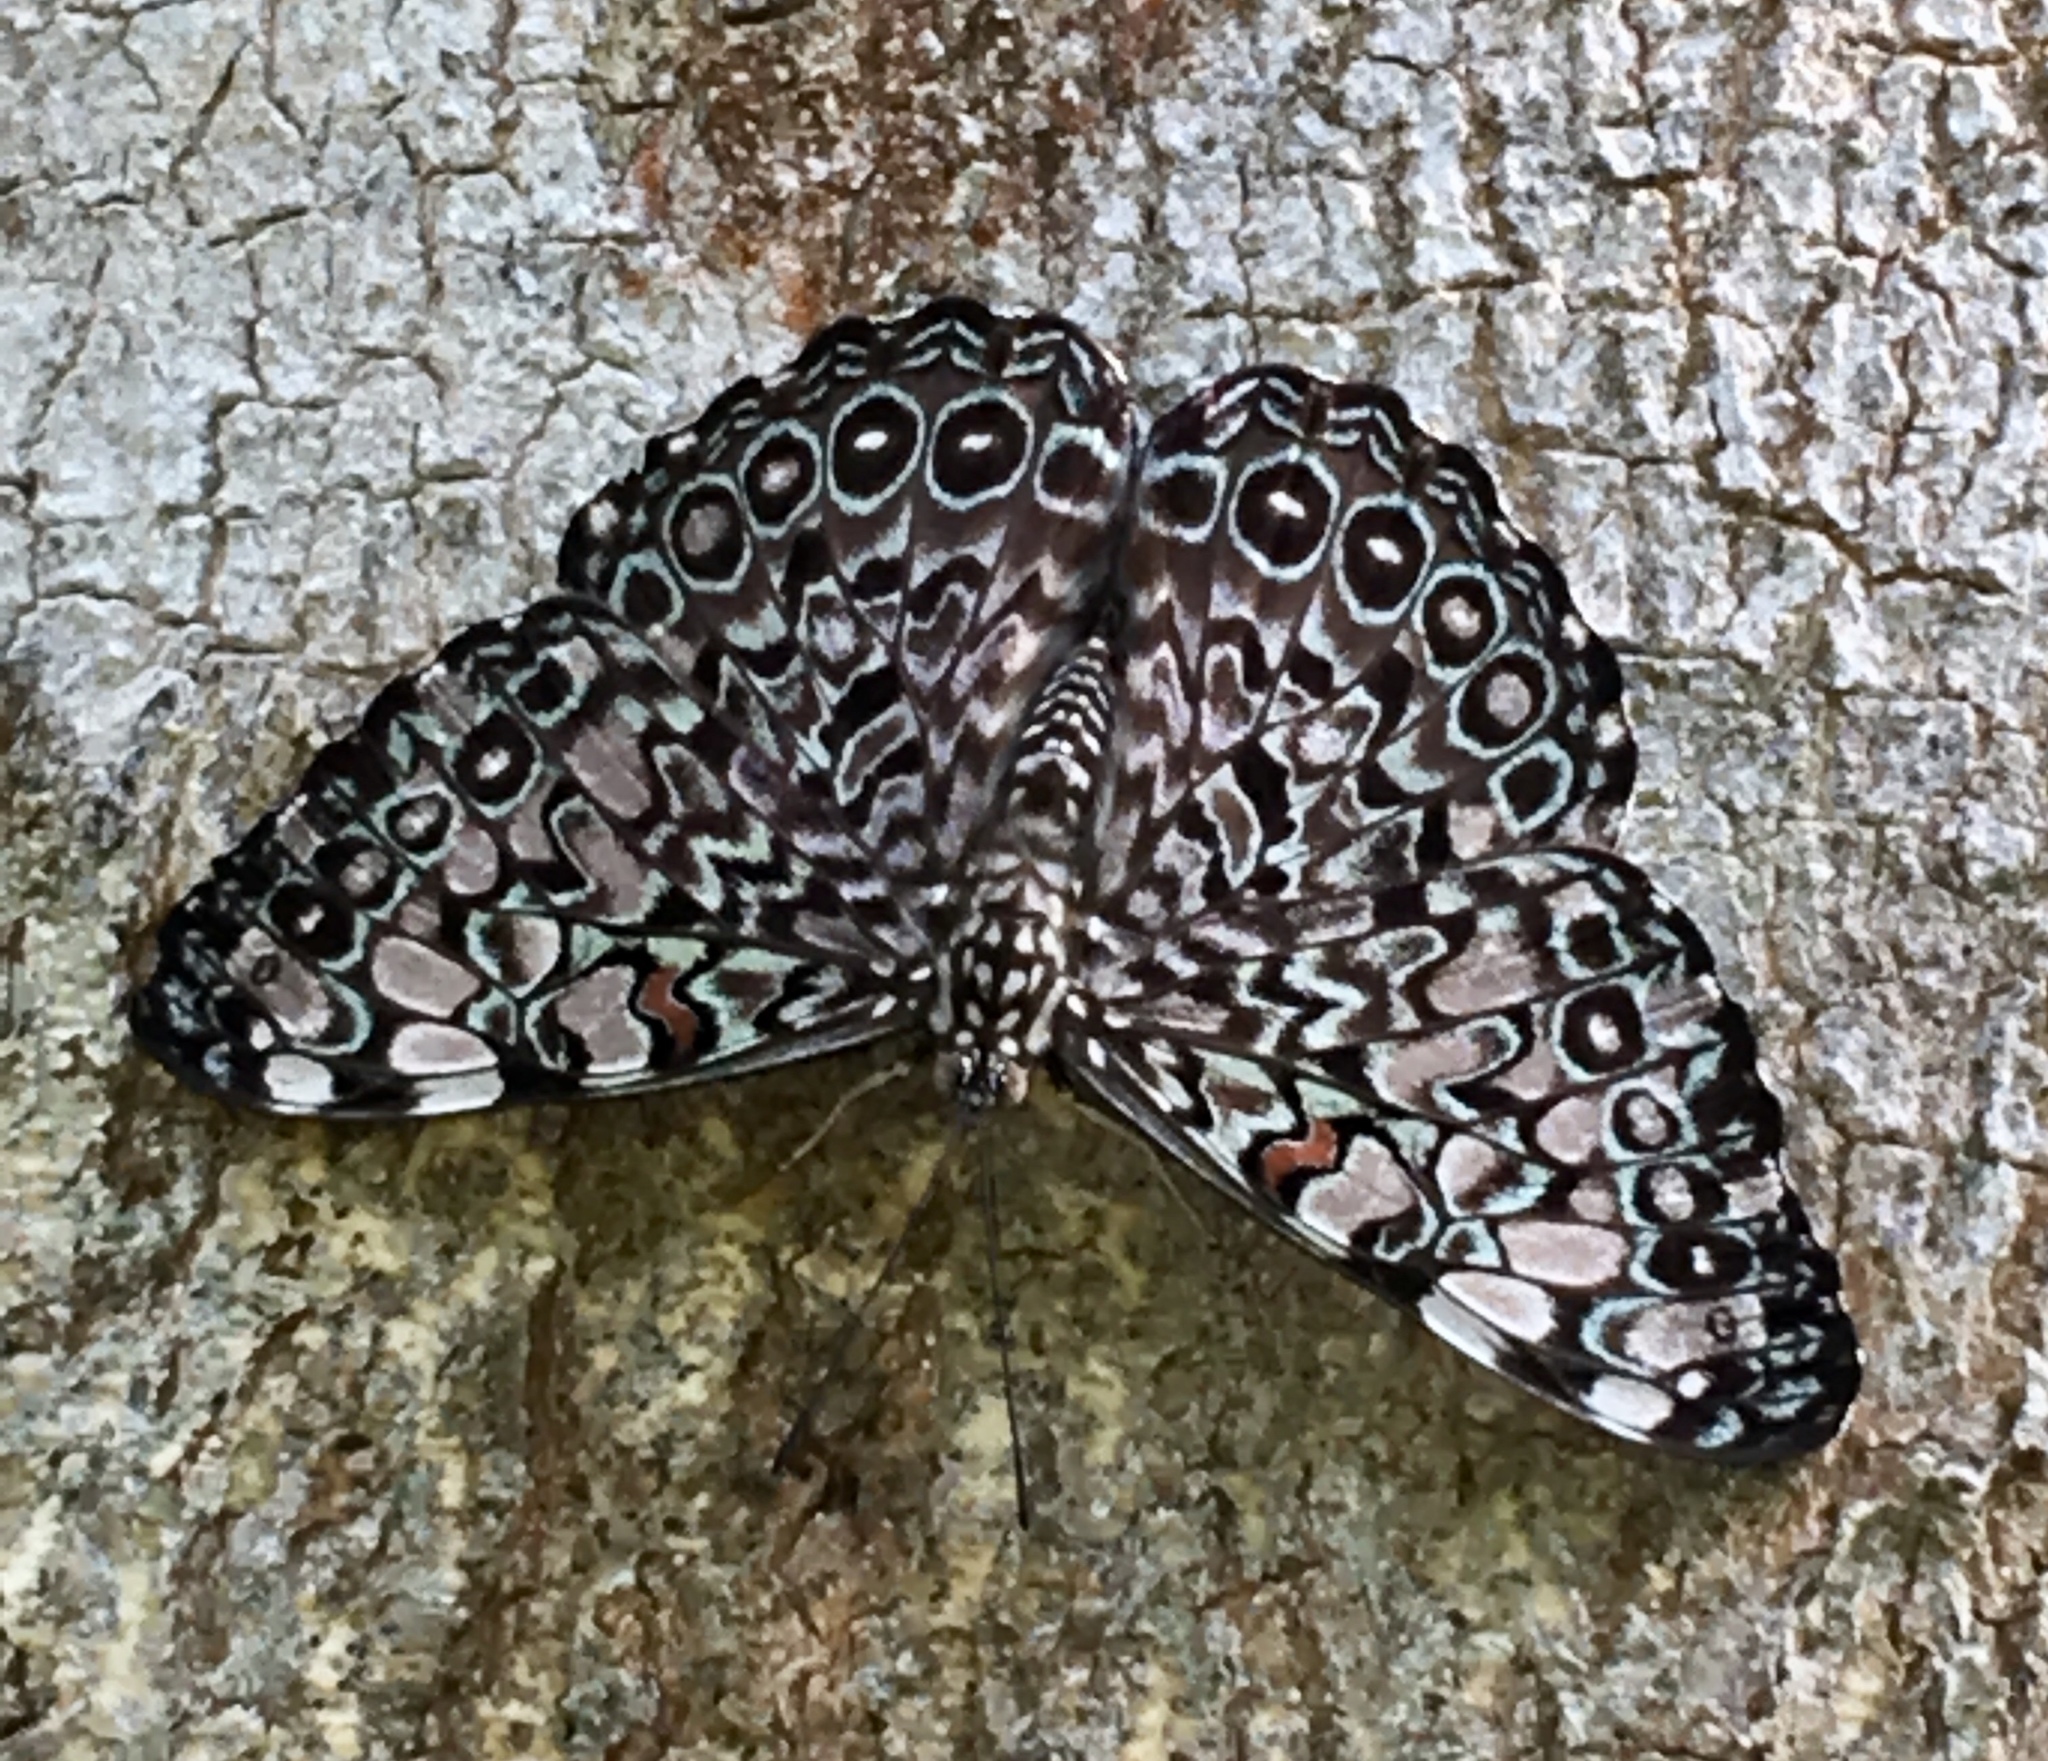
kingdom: Animalia
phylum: Arthropoda
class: Insecta
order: Lepidoptera
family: Nymphalidae
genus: Hamadryas
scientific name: Hamadryas feronia
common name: Variable cracker
